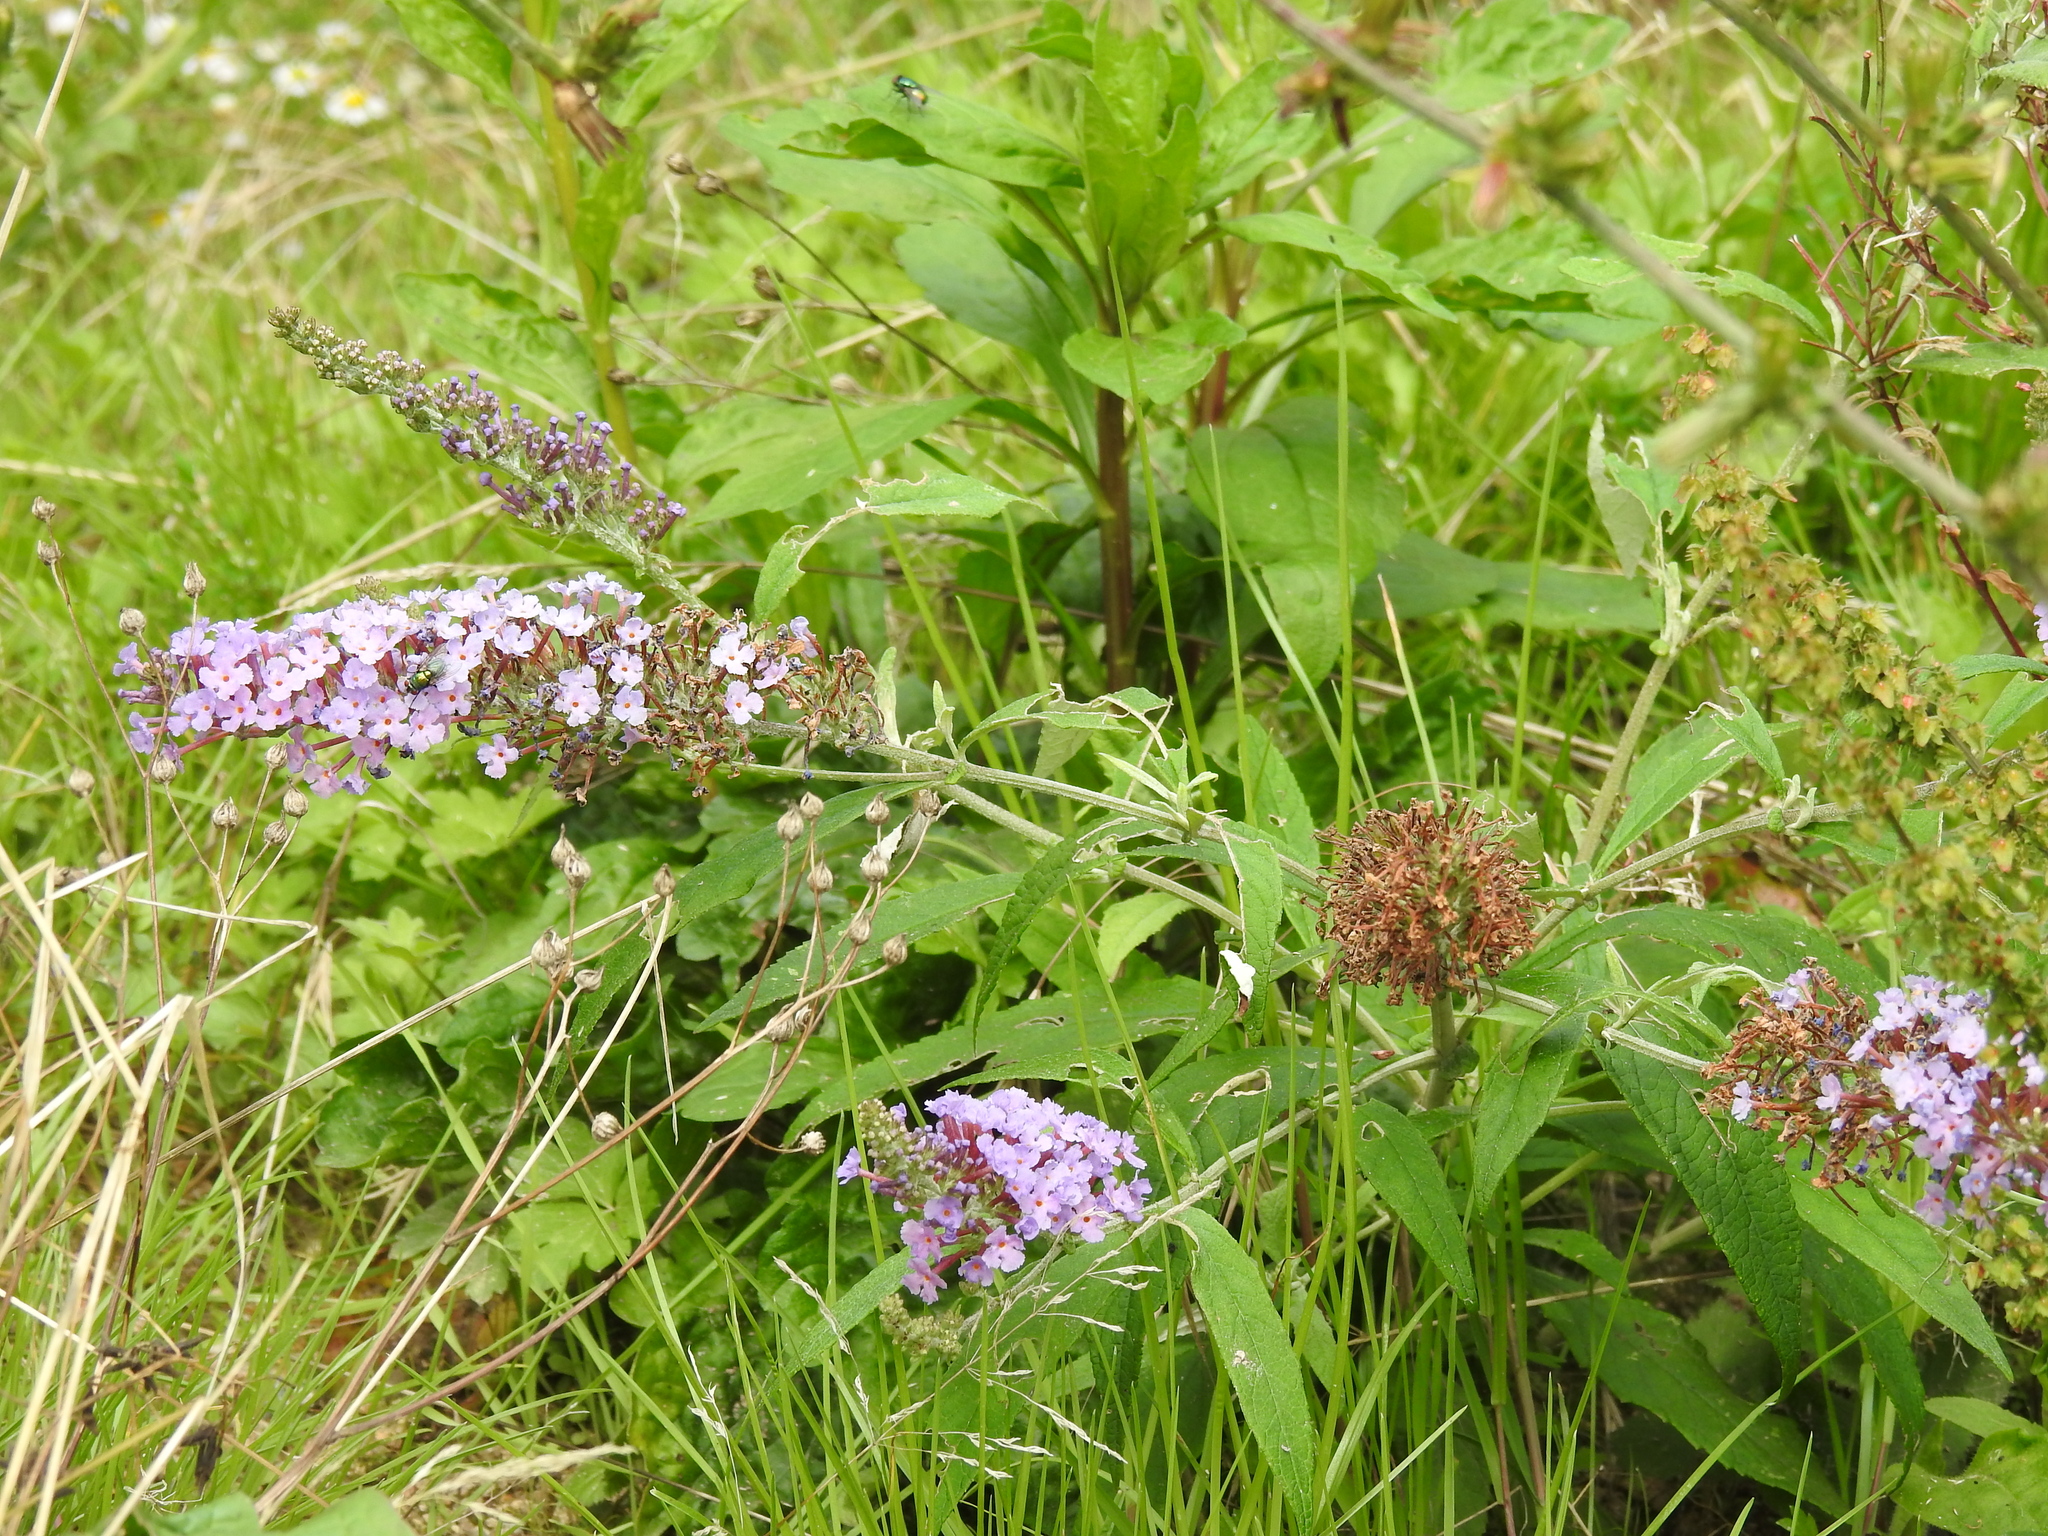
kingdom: Plantae
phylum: Tracheophyta
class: Magnoliopsida
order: Lamiales
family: Scrophulariaceae
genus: Buddleja
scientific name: Buddleja davidii
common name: Butterfly-bush
